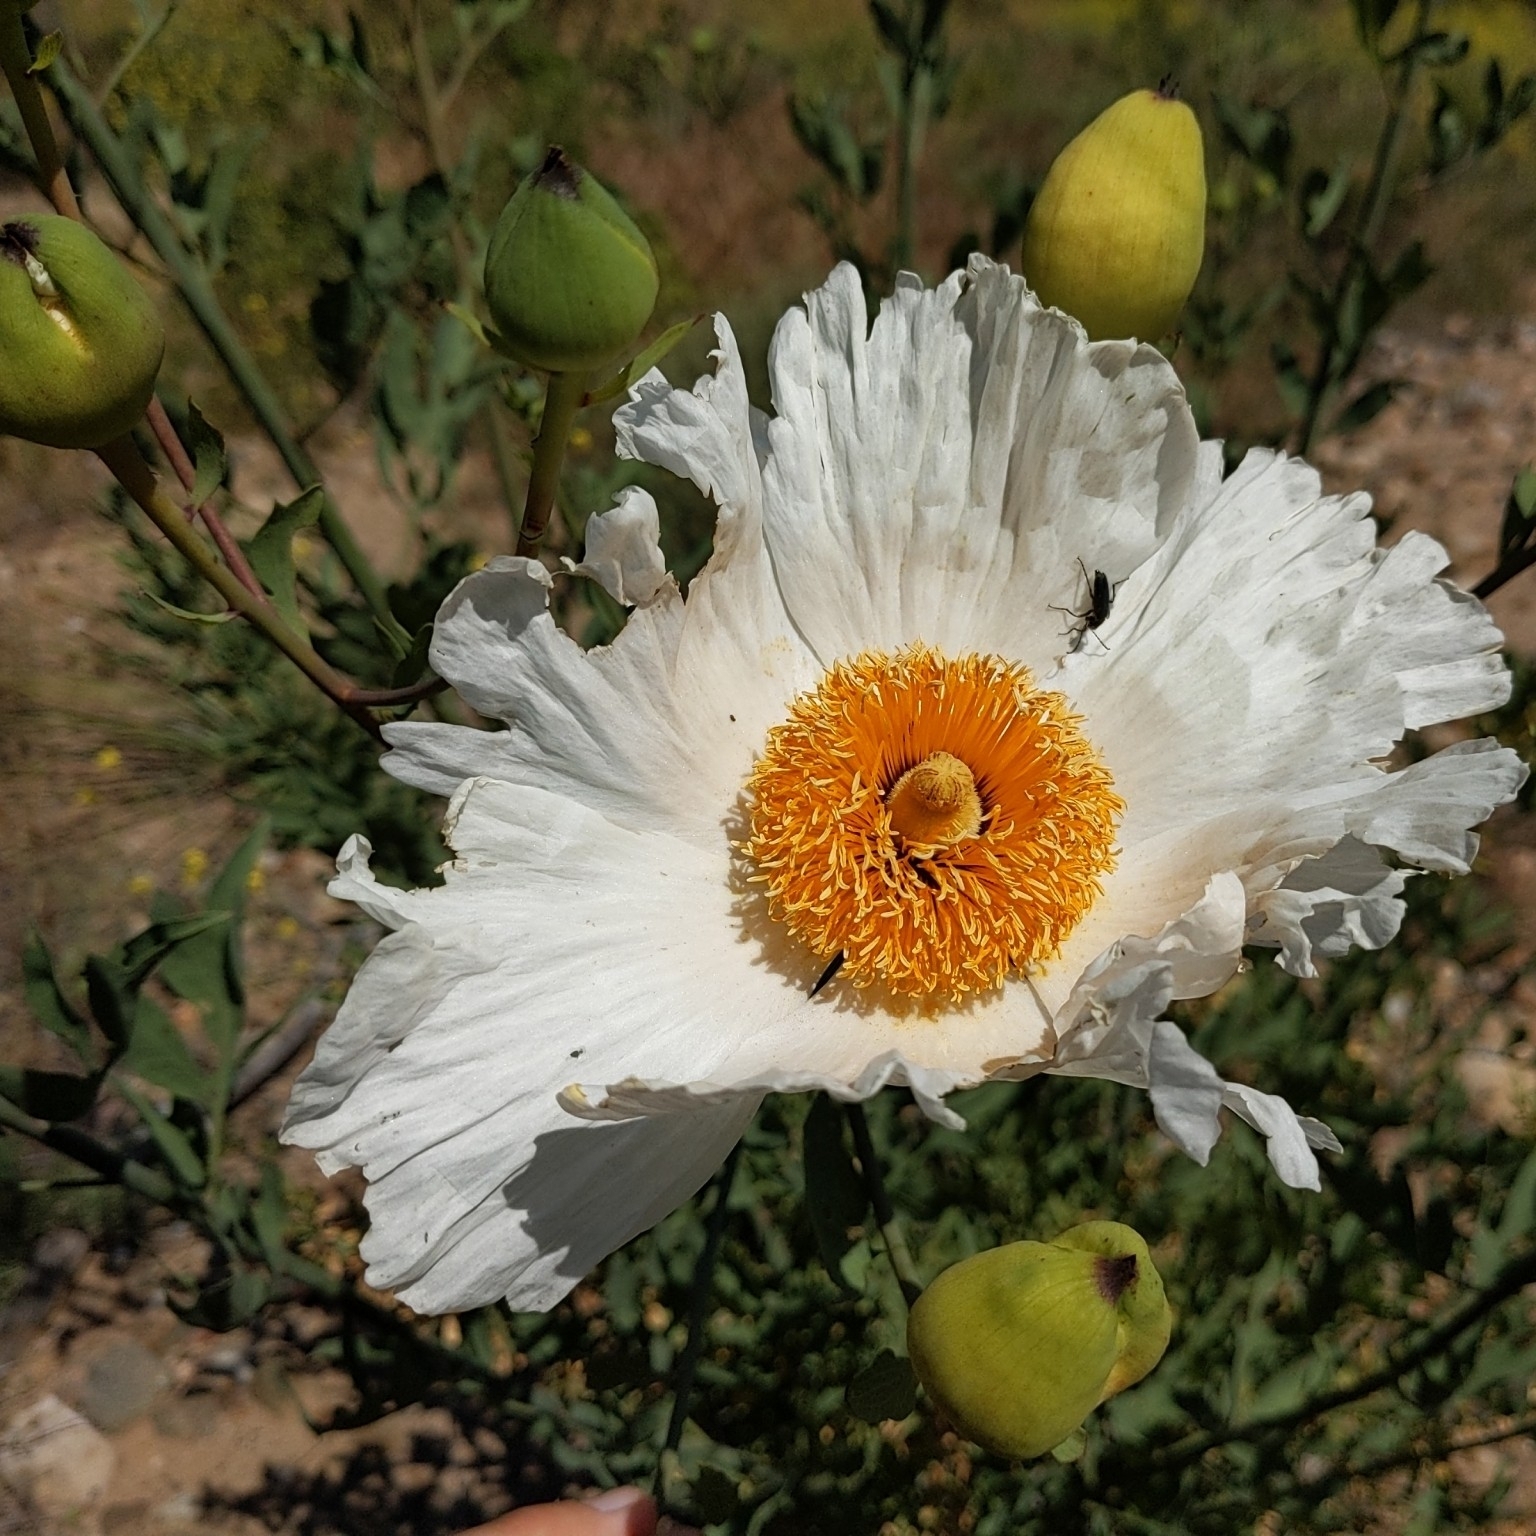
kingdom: Plantae
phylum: Tracheophyta
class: Magnoliopsida
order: Ranunculales
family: Papaveraceae
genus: Romneya
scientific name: Romneya coulteri
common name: California tree-poppy
